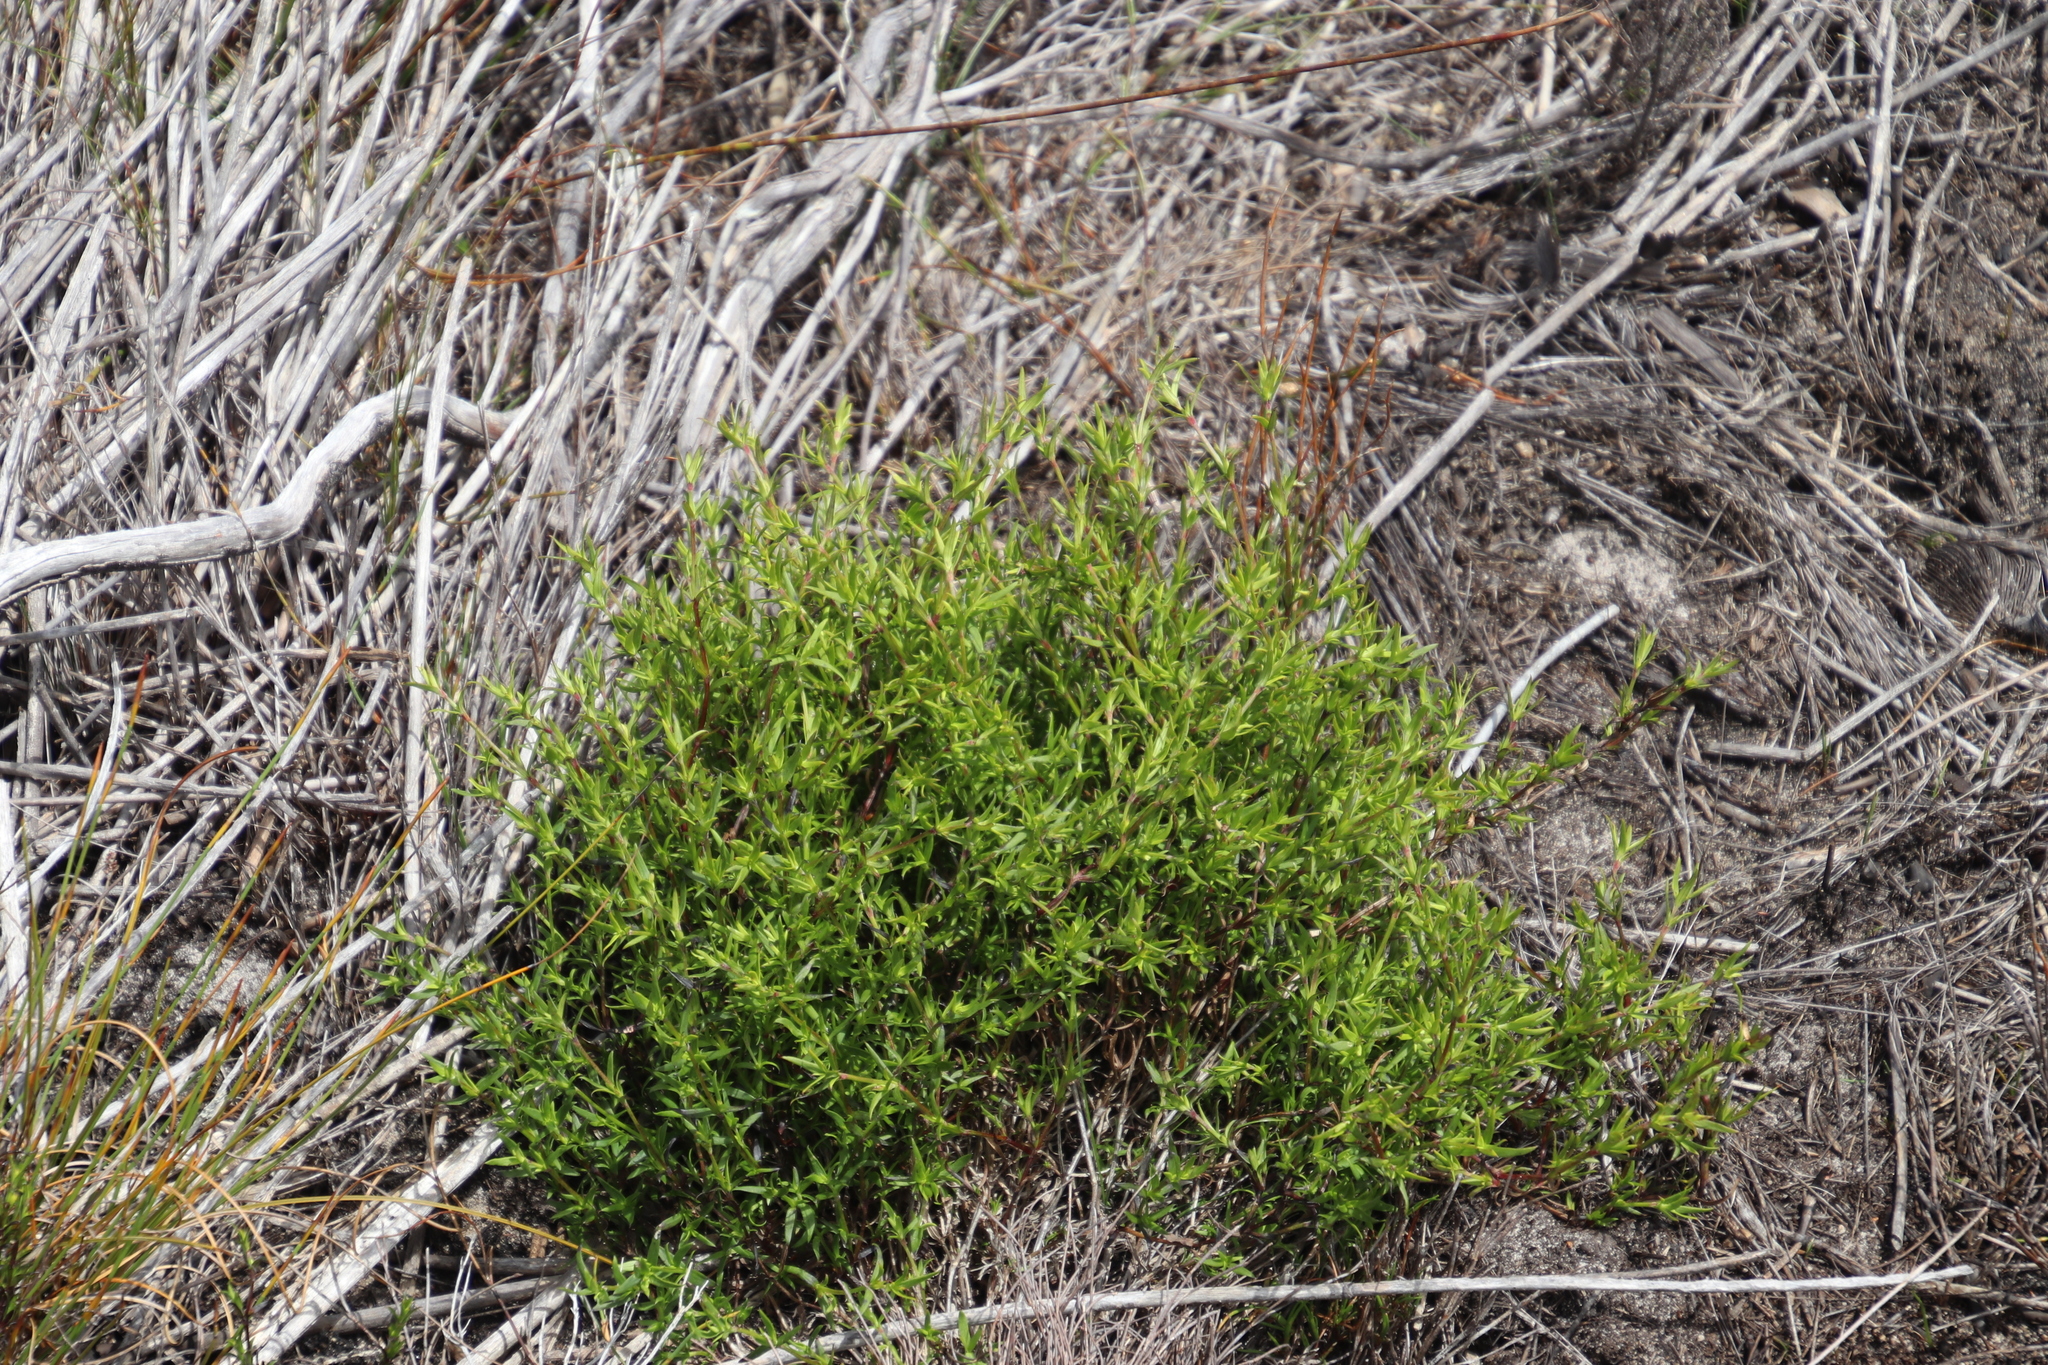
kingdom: Plantae
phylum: Tracheophyta
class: Magnoliopsida
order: Gentianales
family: Rubiaceae
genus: Carpacoce
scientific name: Carpacoce spermacocea
